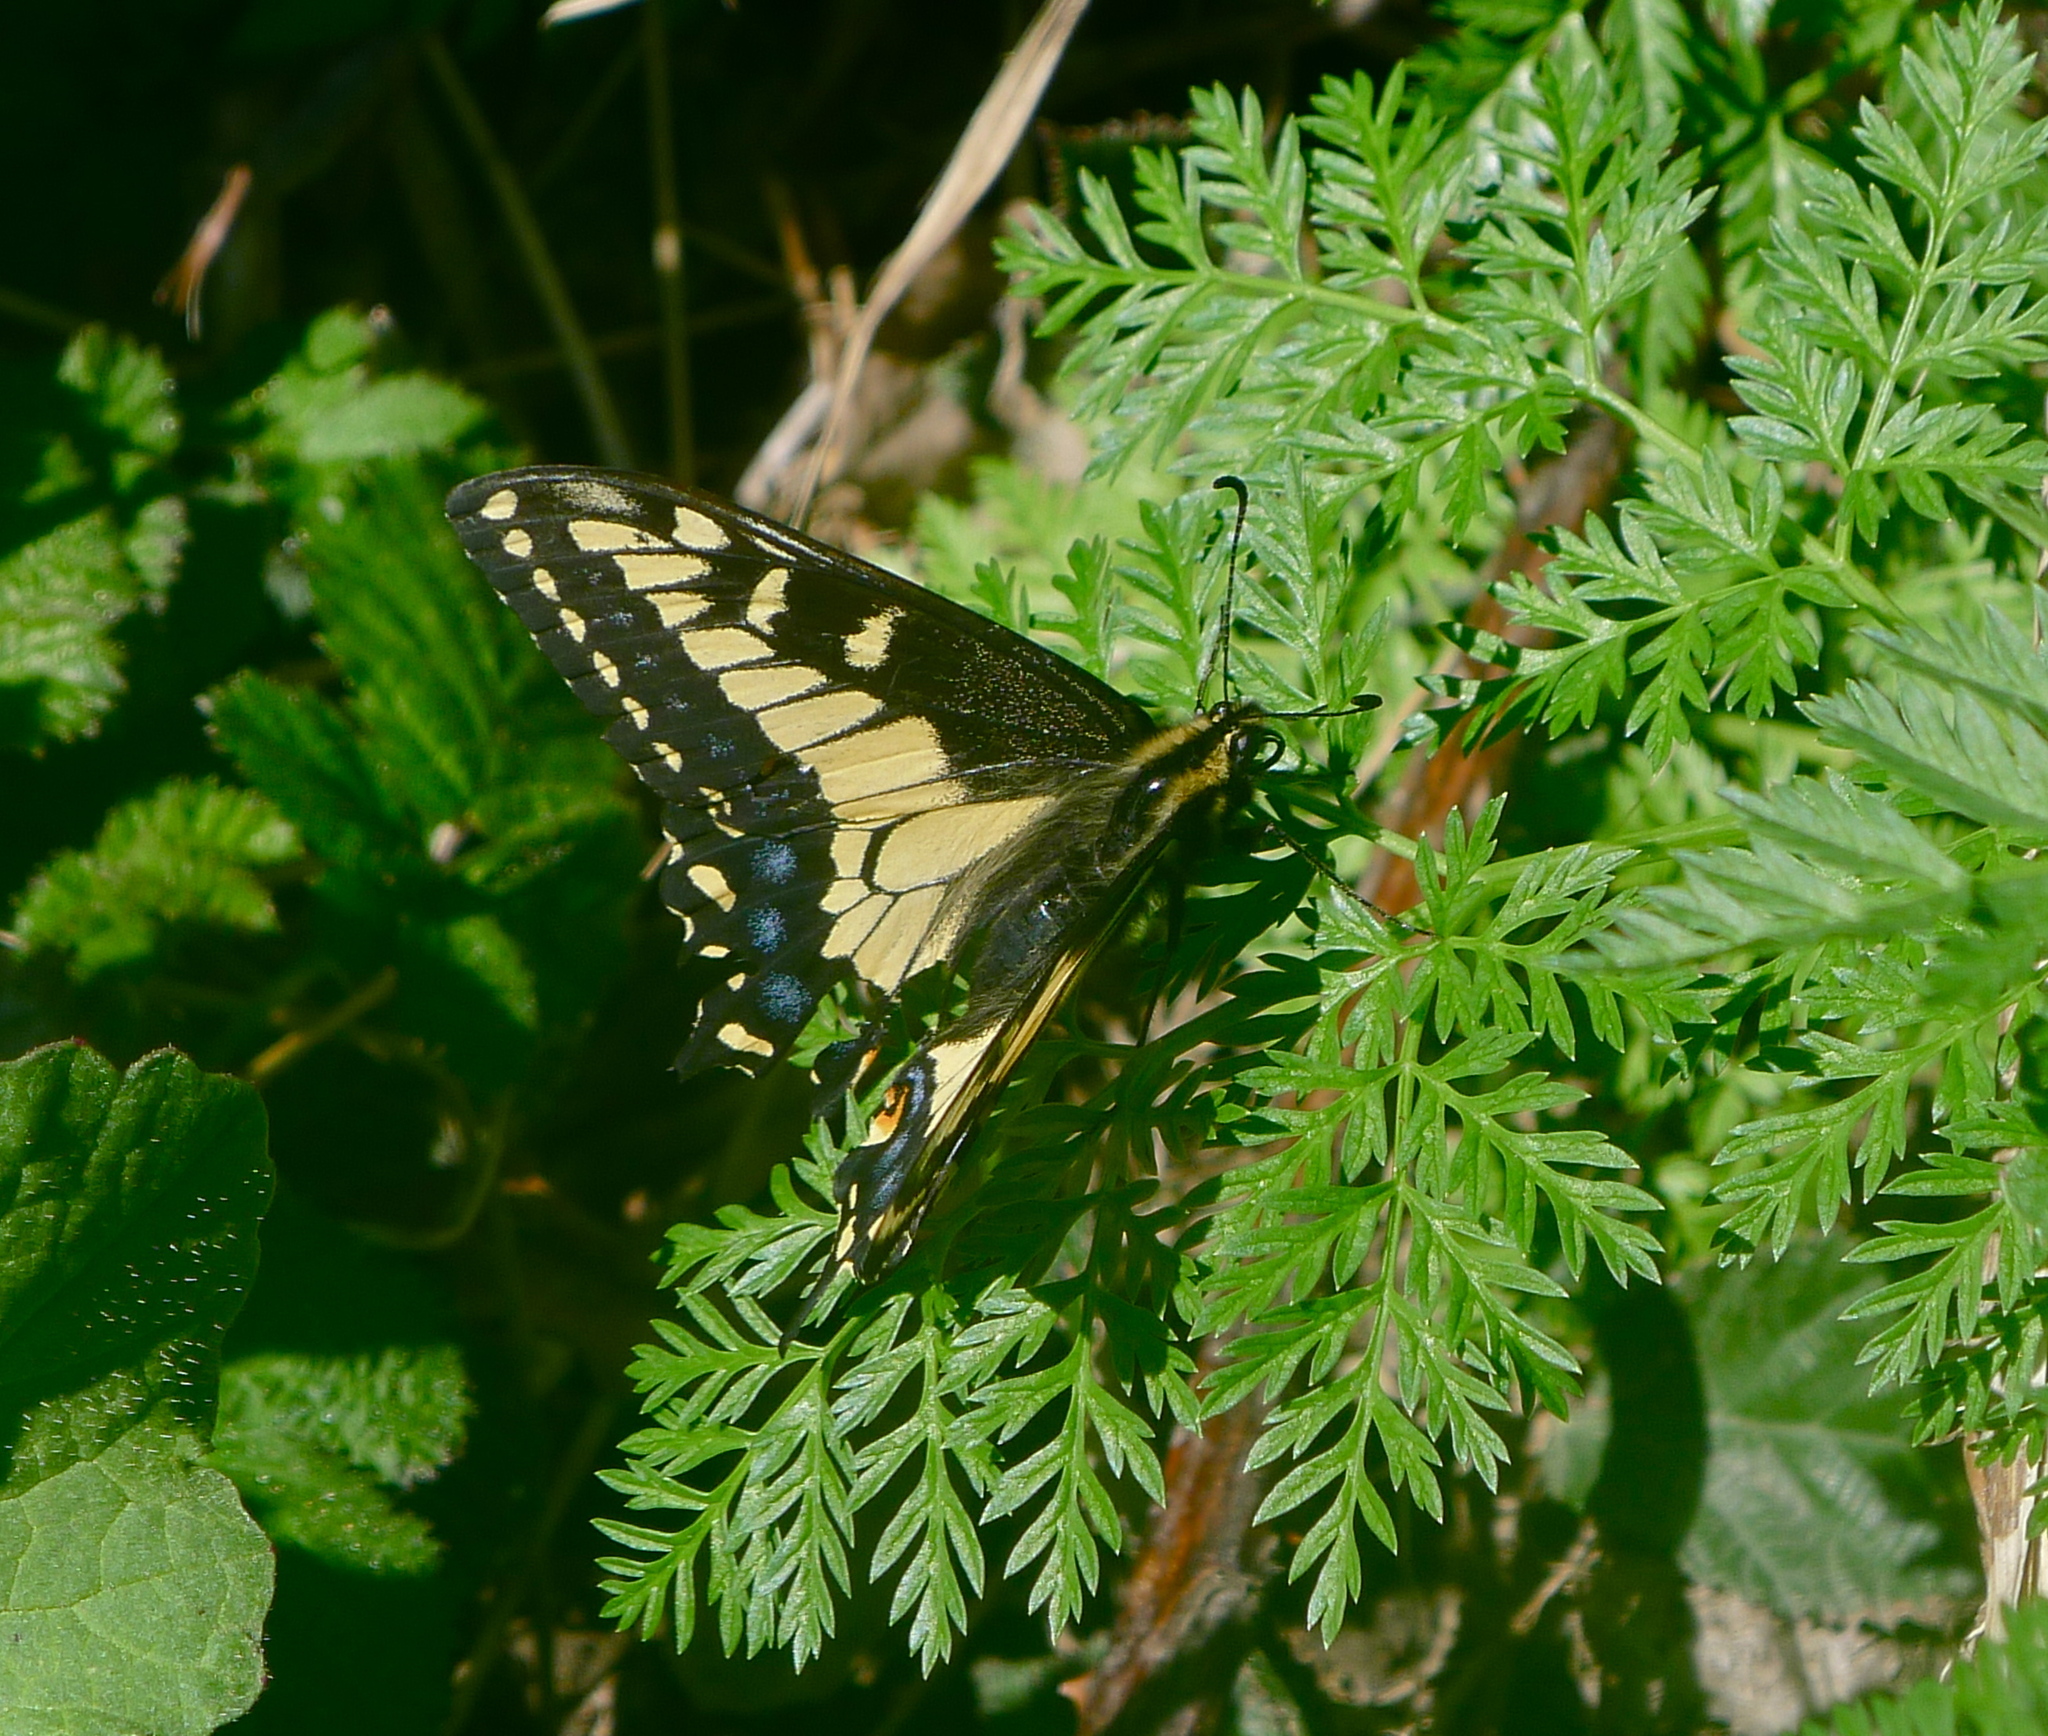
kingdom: Animalia
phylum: Arthropoda
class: Insecta
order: Lepidoptera
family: Papilionidae
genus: Papilio
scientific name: Papilio zelicaon
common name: Anise swallowtail
